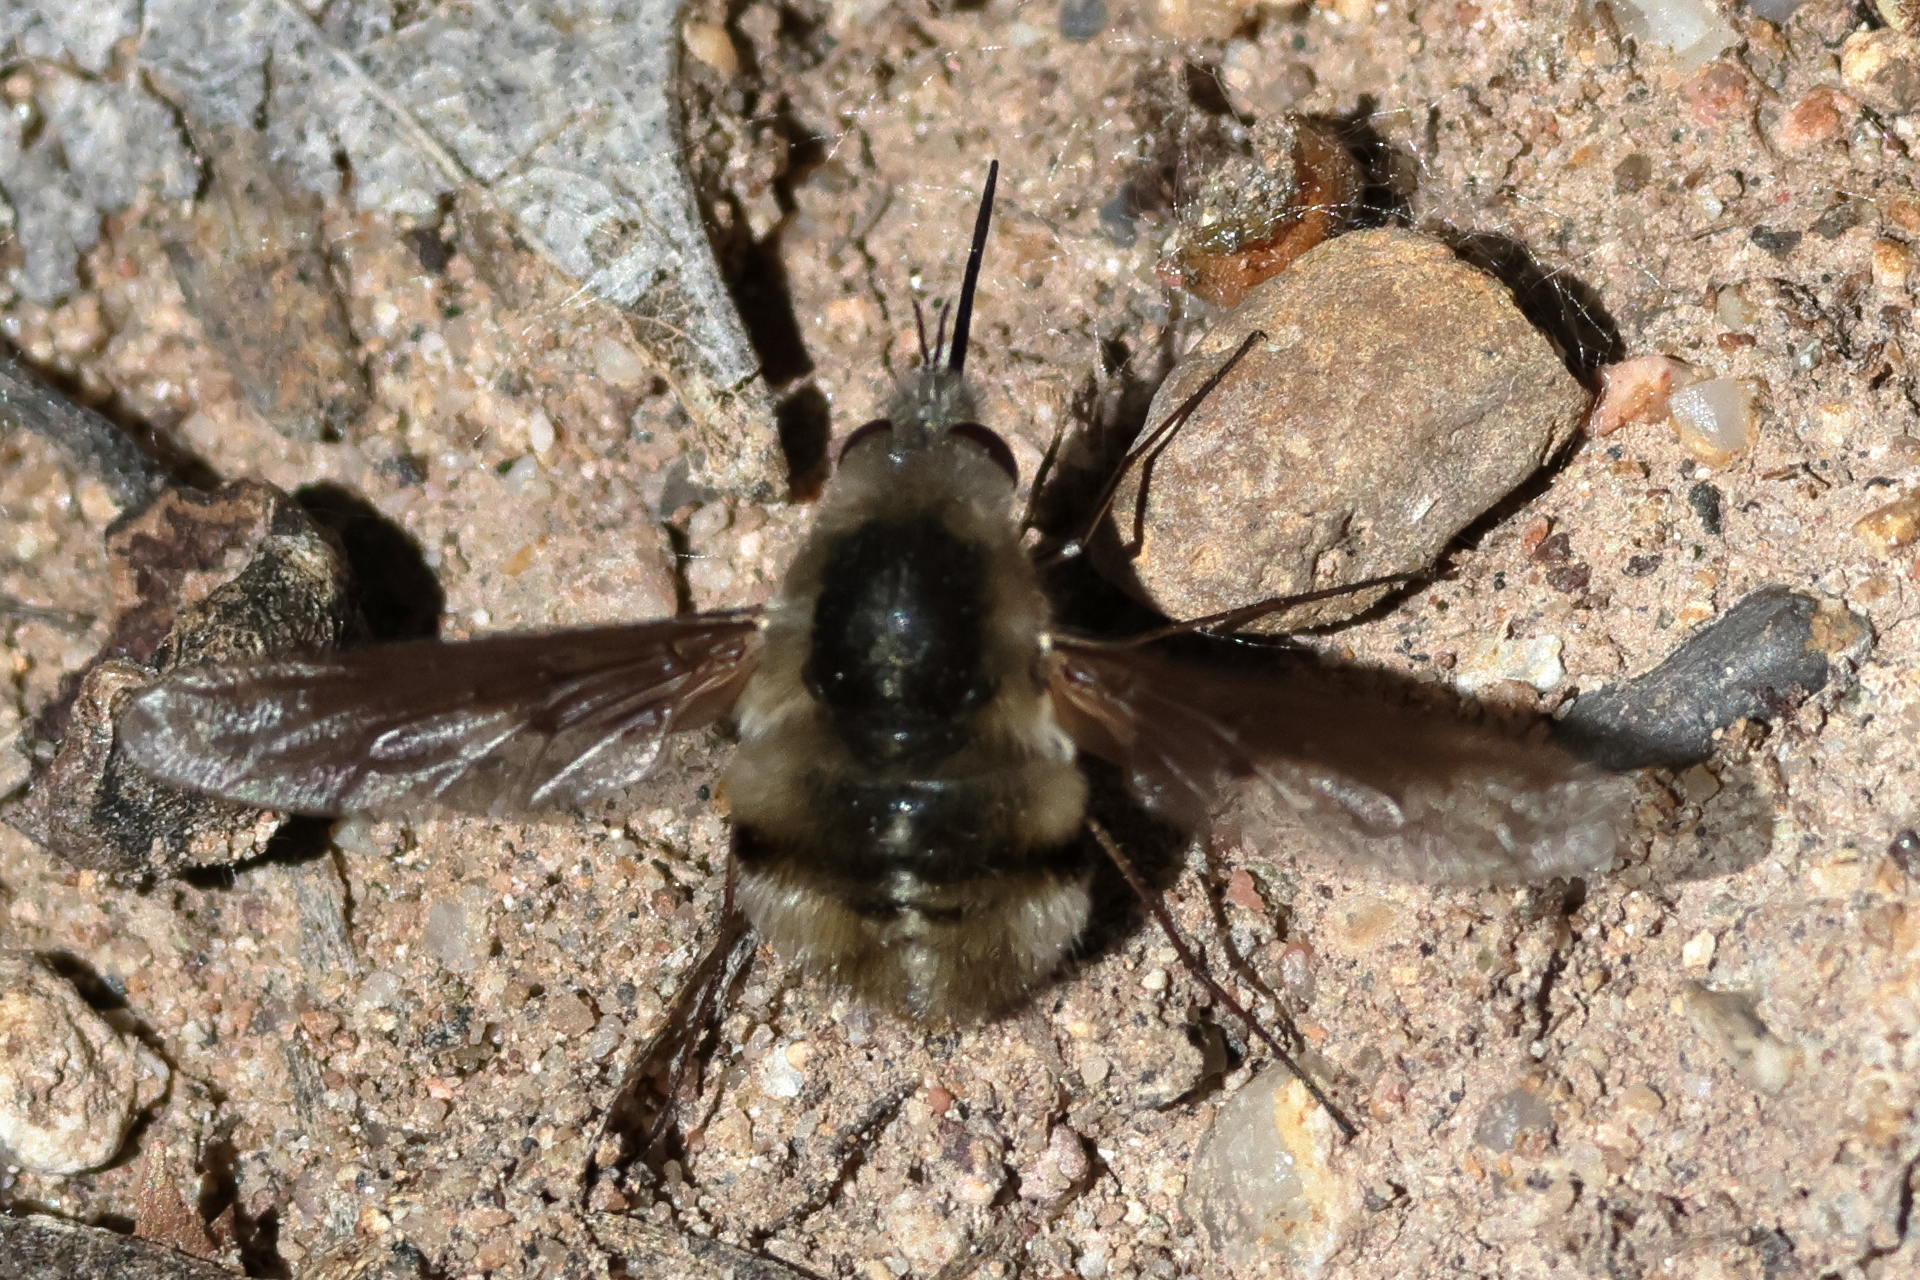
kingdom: Animalia
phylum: Arthropoda
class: Insecta
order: Diptera
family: Bombyliidae
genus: Bombylius
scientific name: Bombylius major
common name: Bee fly
